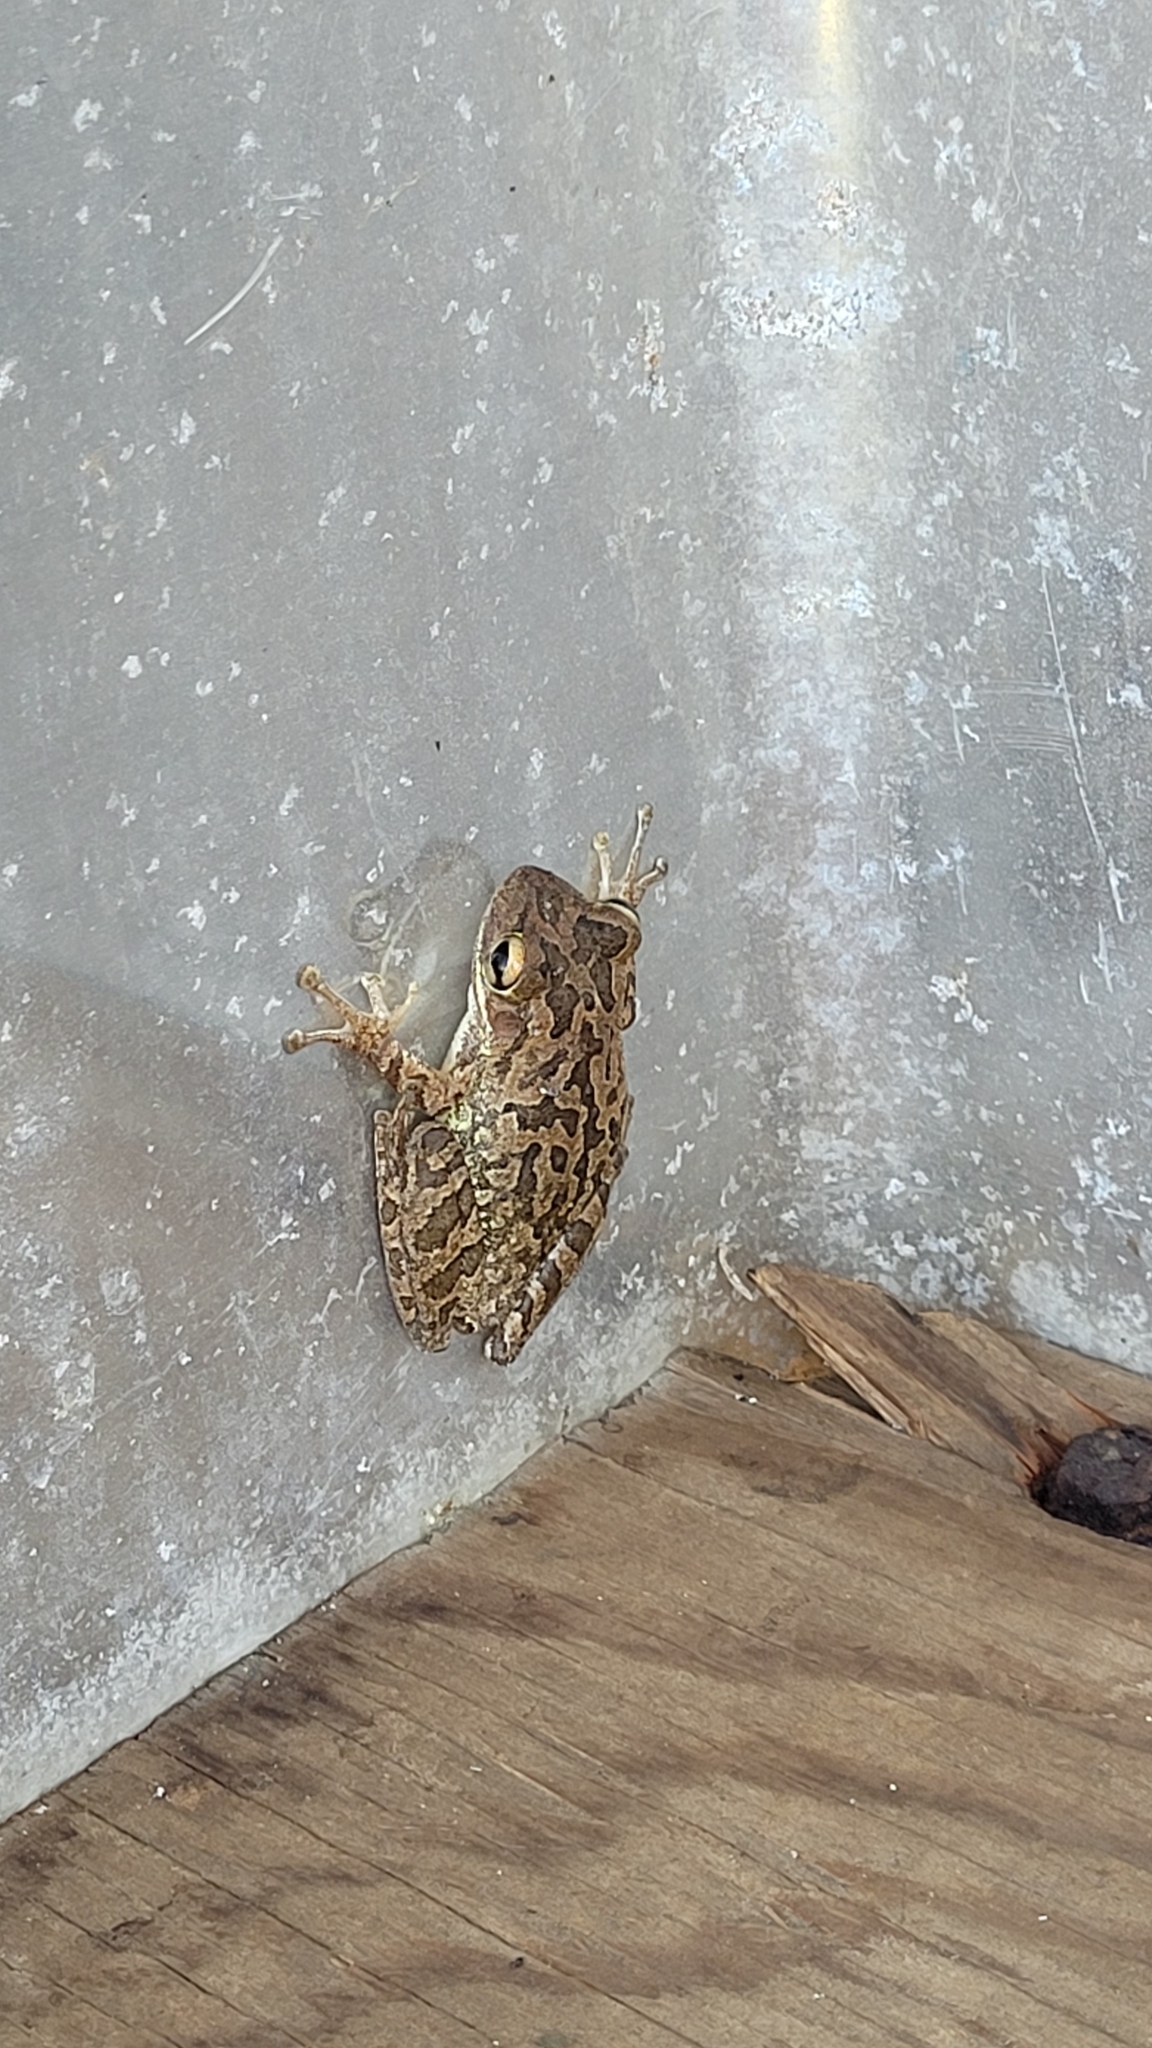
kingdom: Animalia
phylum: Chordata
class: Amphibia
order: Anura
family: Hylidae
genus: Osteopilus
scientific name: Osteopilus septentrionalis
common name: Cuban treefrog
